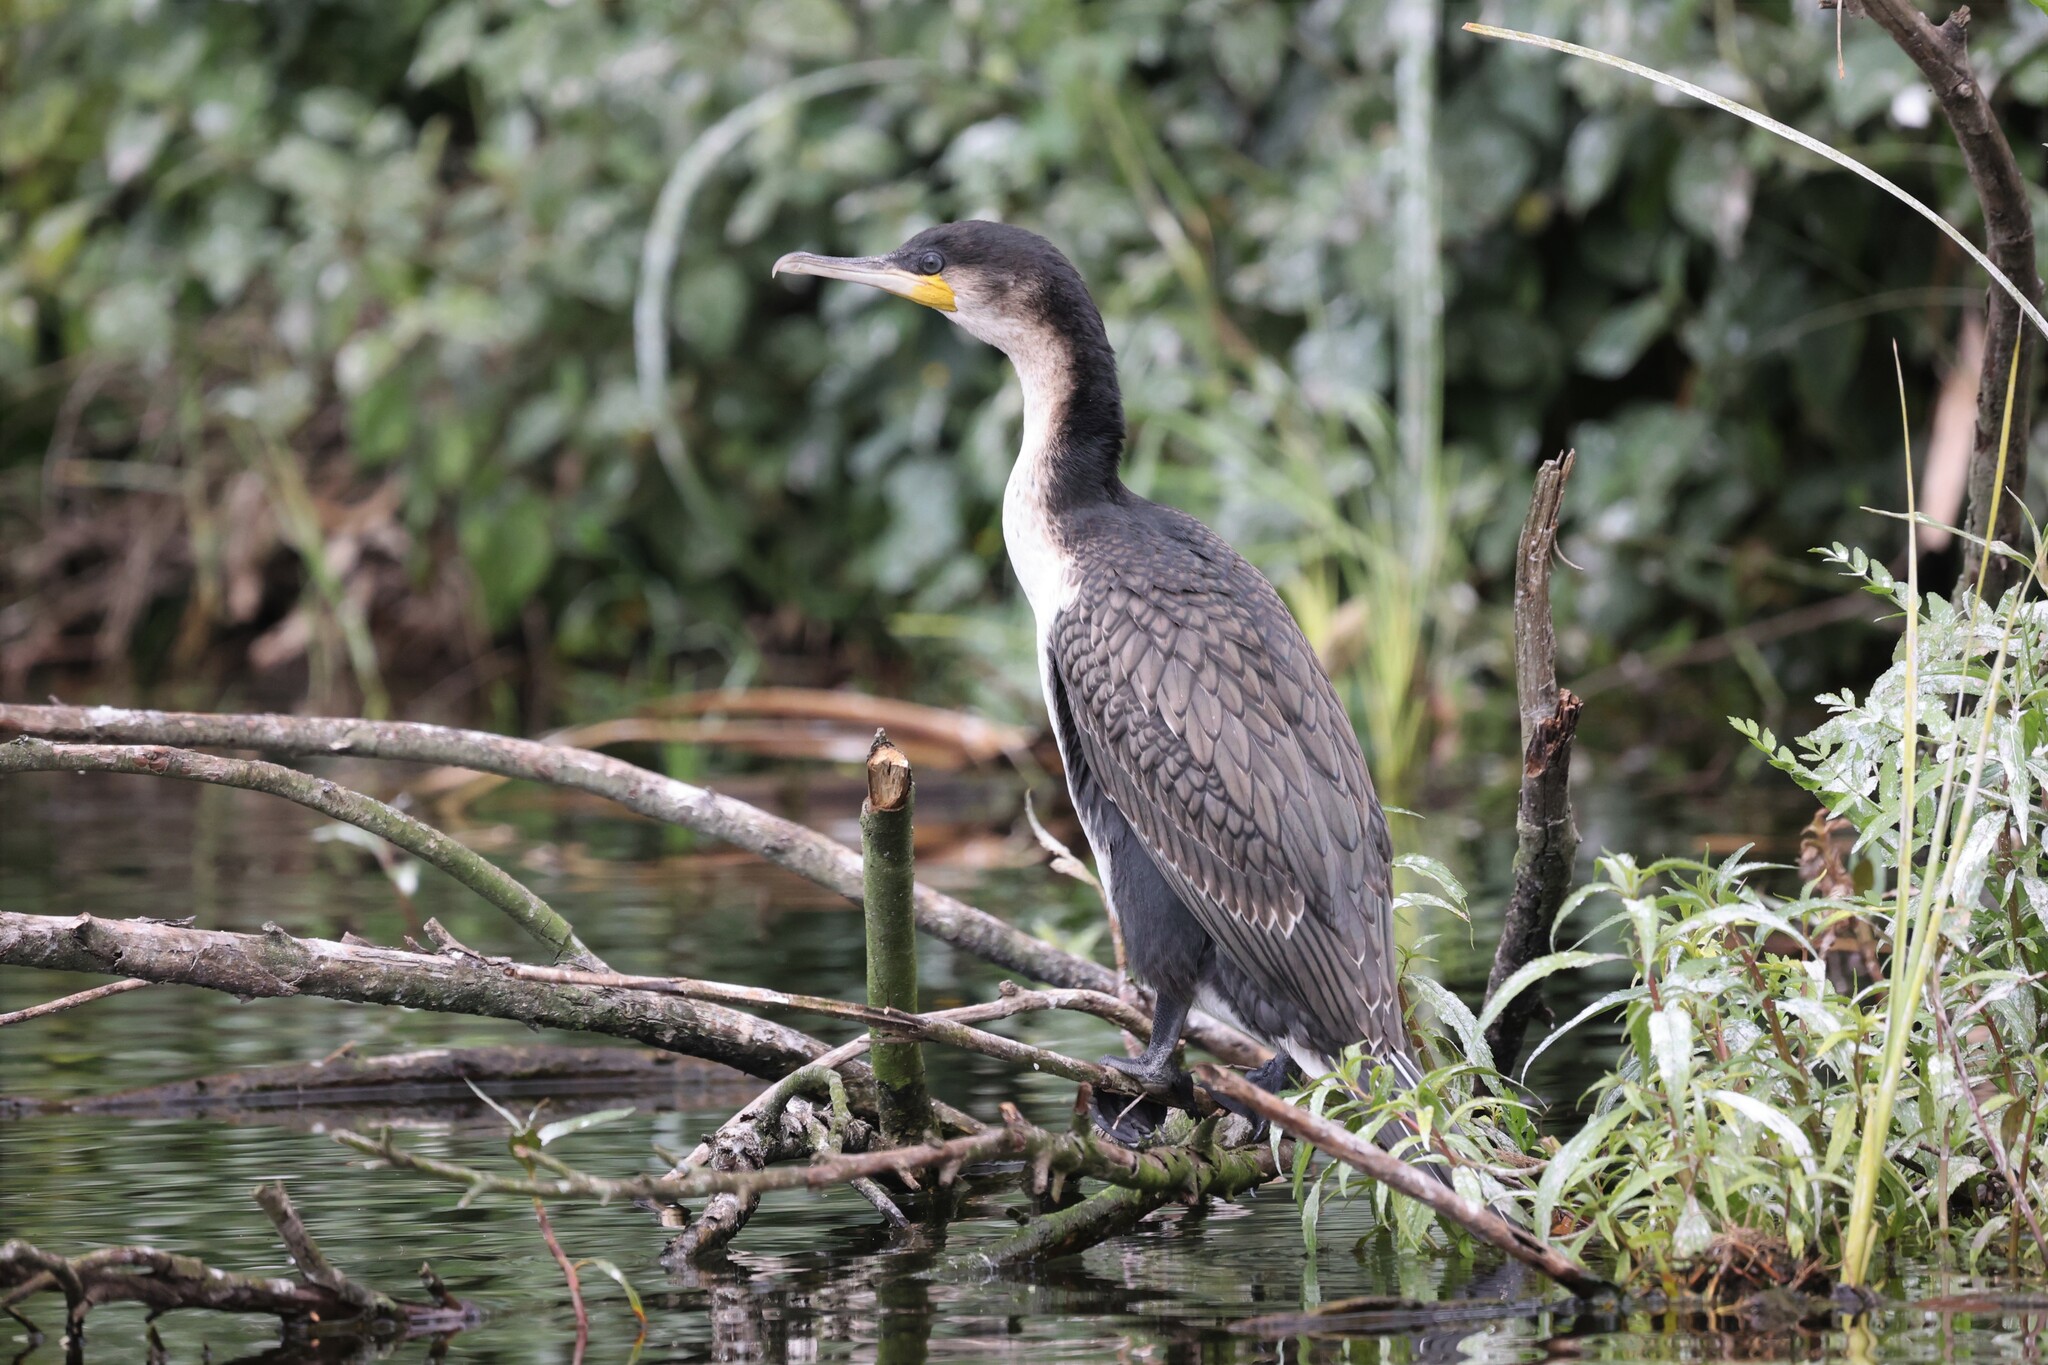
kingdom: Animalia
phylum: Chordata
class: Aves
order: Suliformes
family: Phalacrocoracidae
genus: Phalacrocorax
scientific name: Phalacrocorax carbo
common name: Great cormorant
